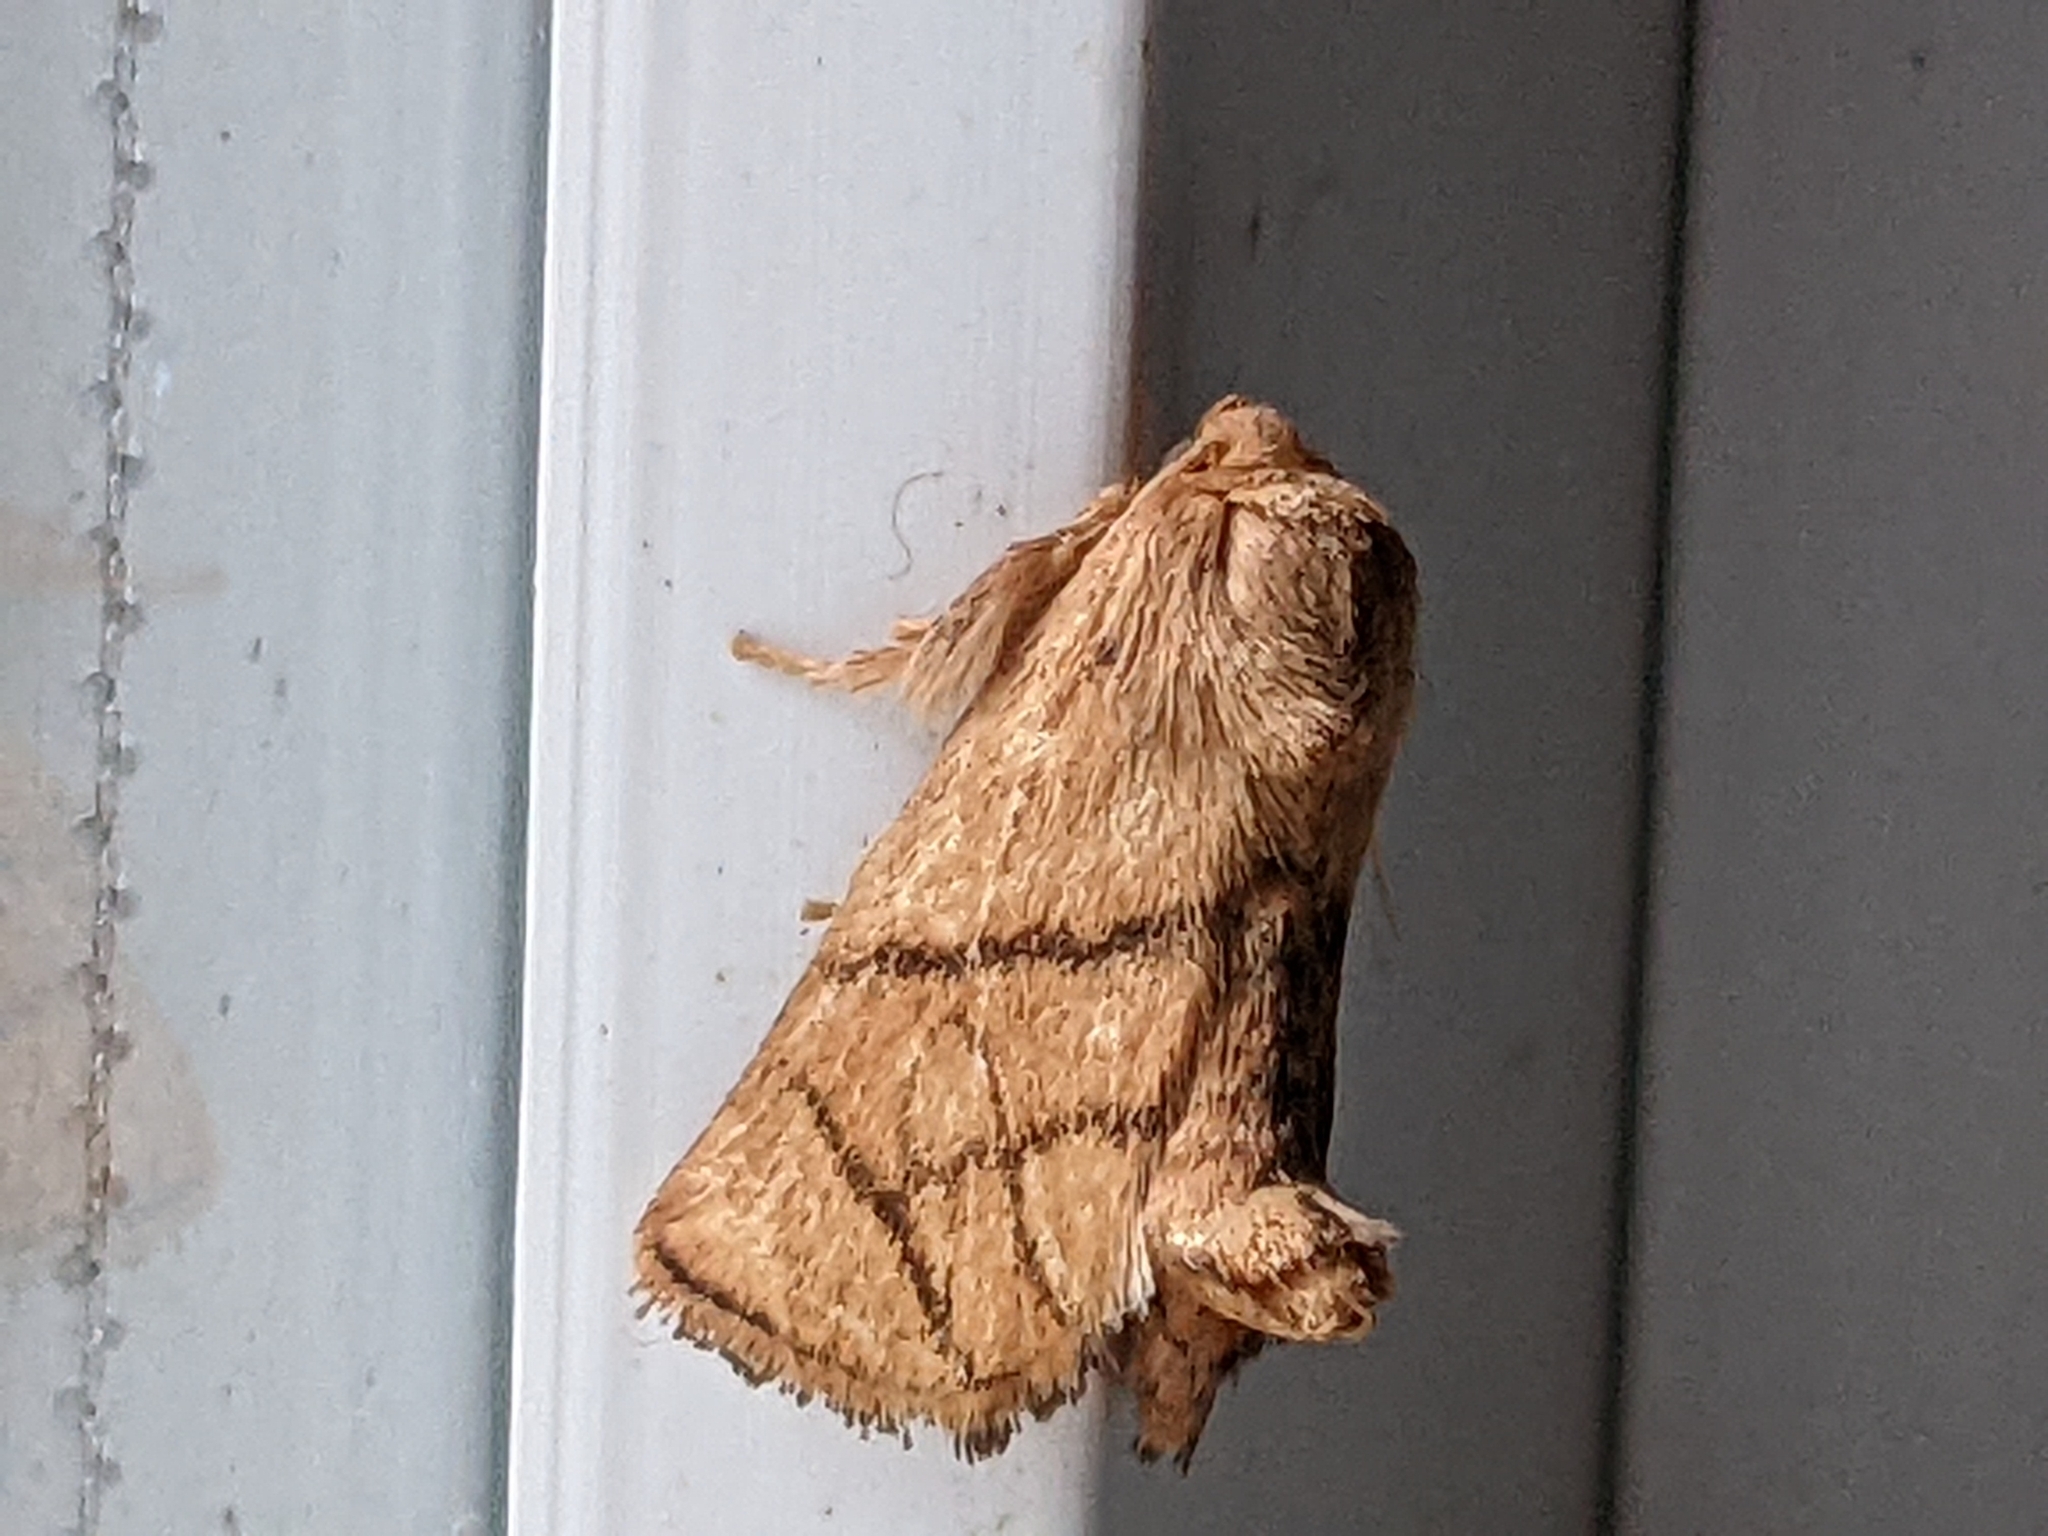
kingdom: Animalia
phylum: Arthropoda
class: Insecta
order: Lepidoptera
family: Limacodidae
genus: Apoda
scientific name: Apoda y-inversa
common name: Yellow-collared slug moth
